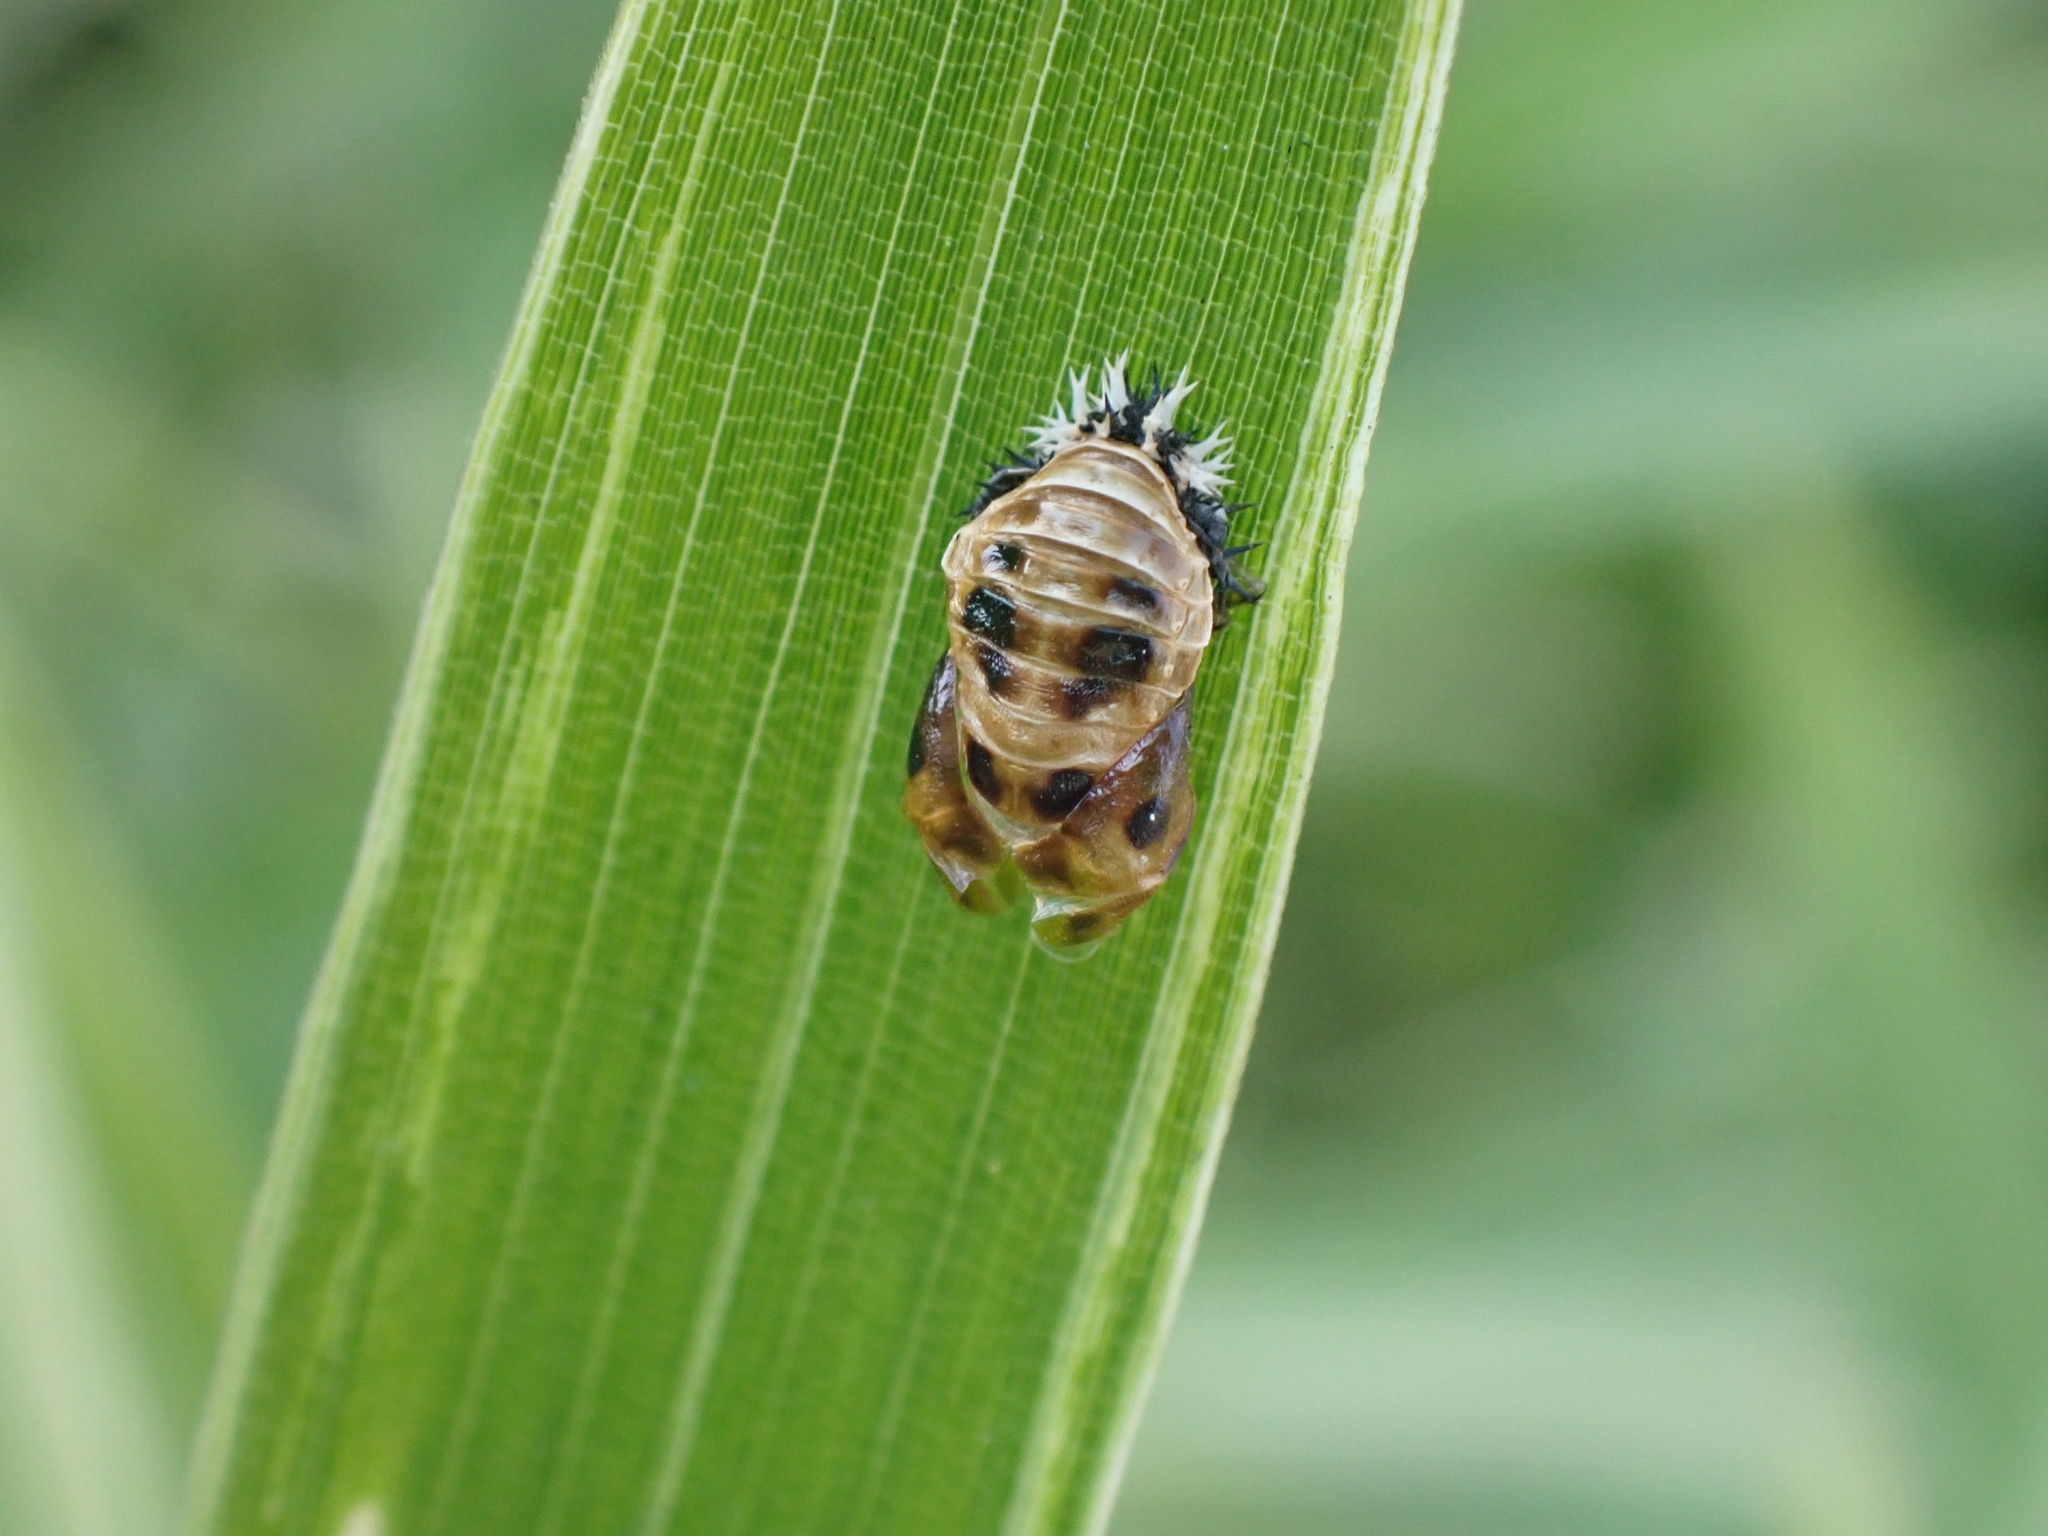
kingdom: Animalia
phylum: Arthropoda
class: Insecta
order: Coleoptera
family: Coccinellidae
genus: Harmonia
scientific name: Harmonia axyridis
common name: Harlequin ladybird
